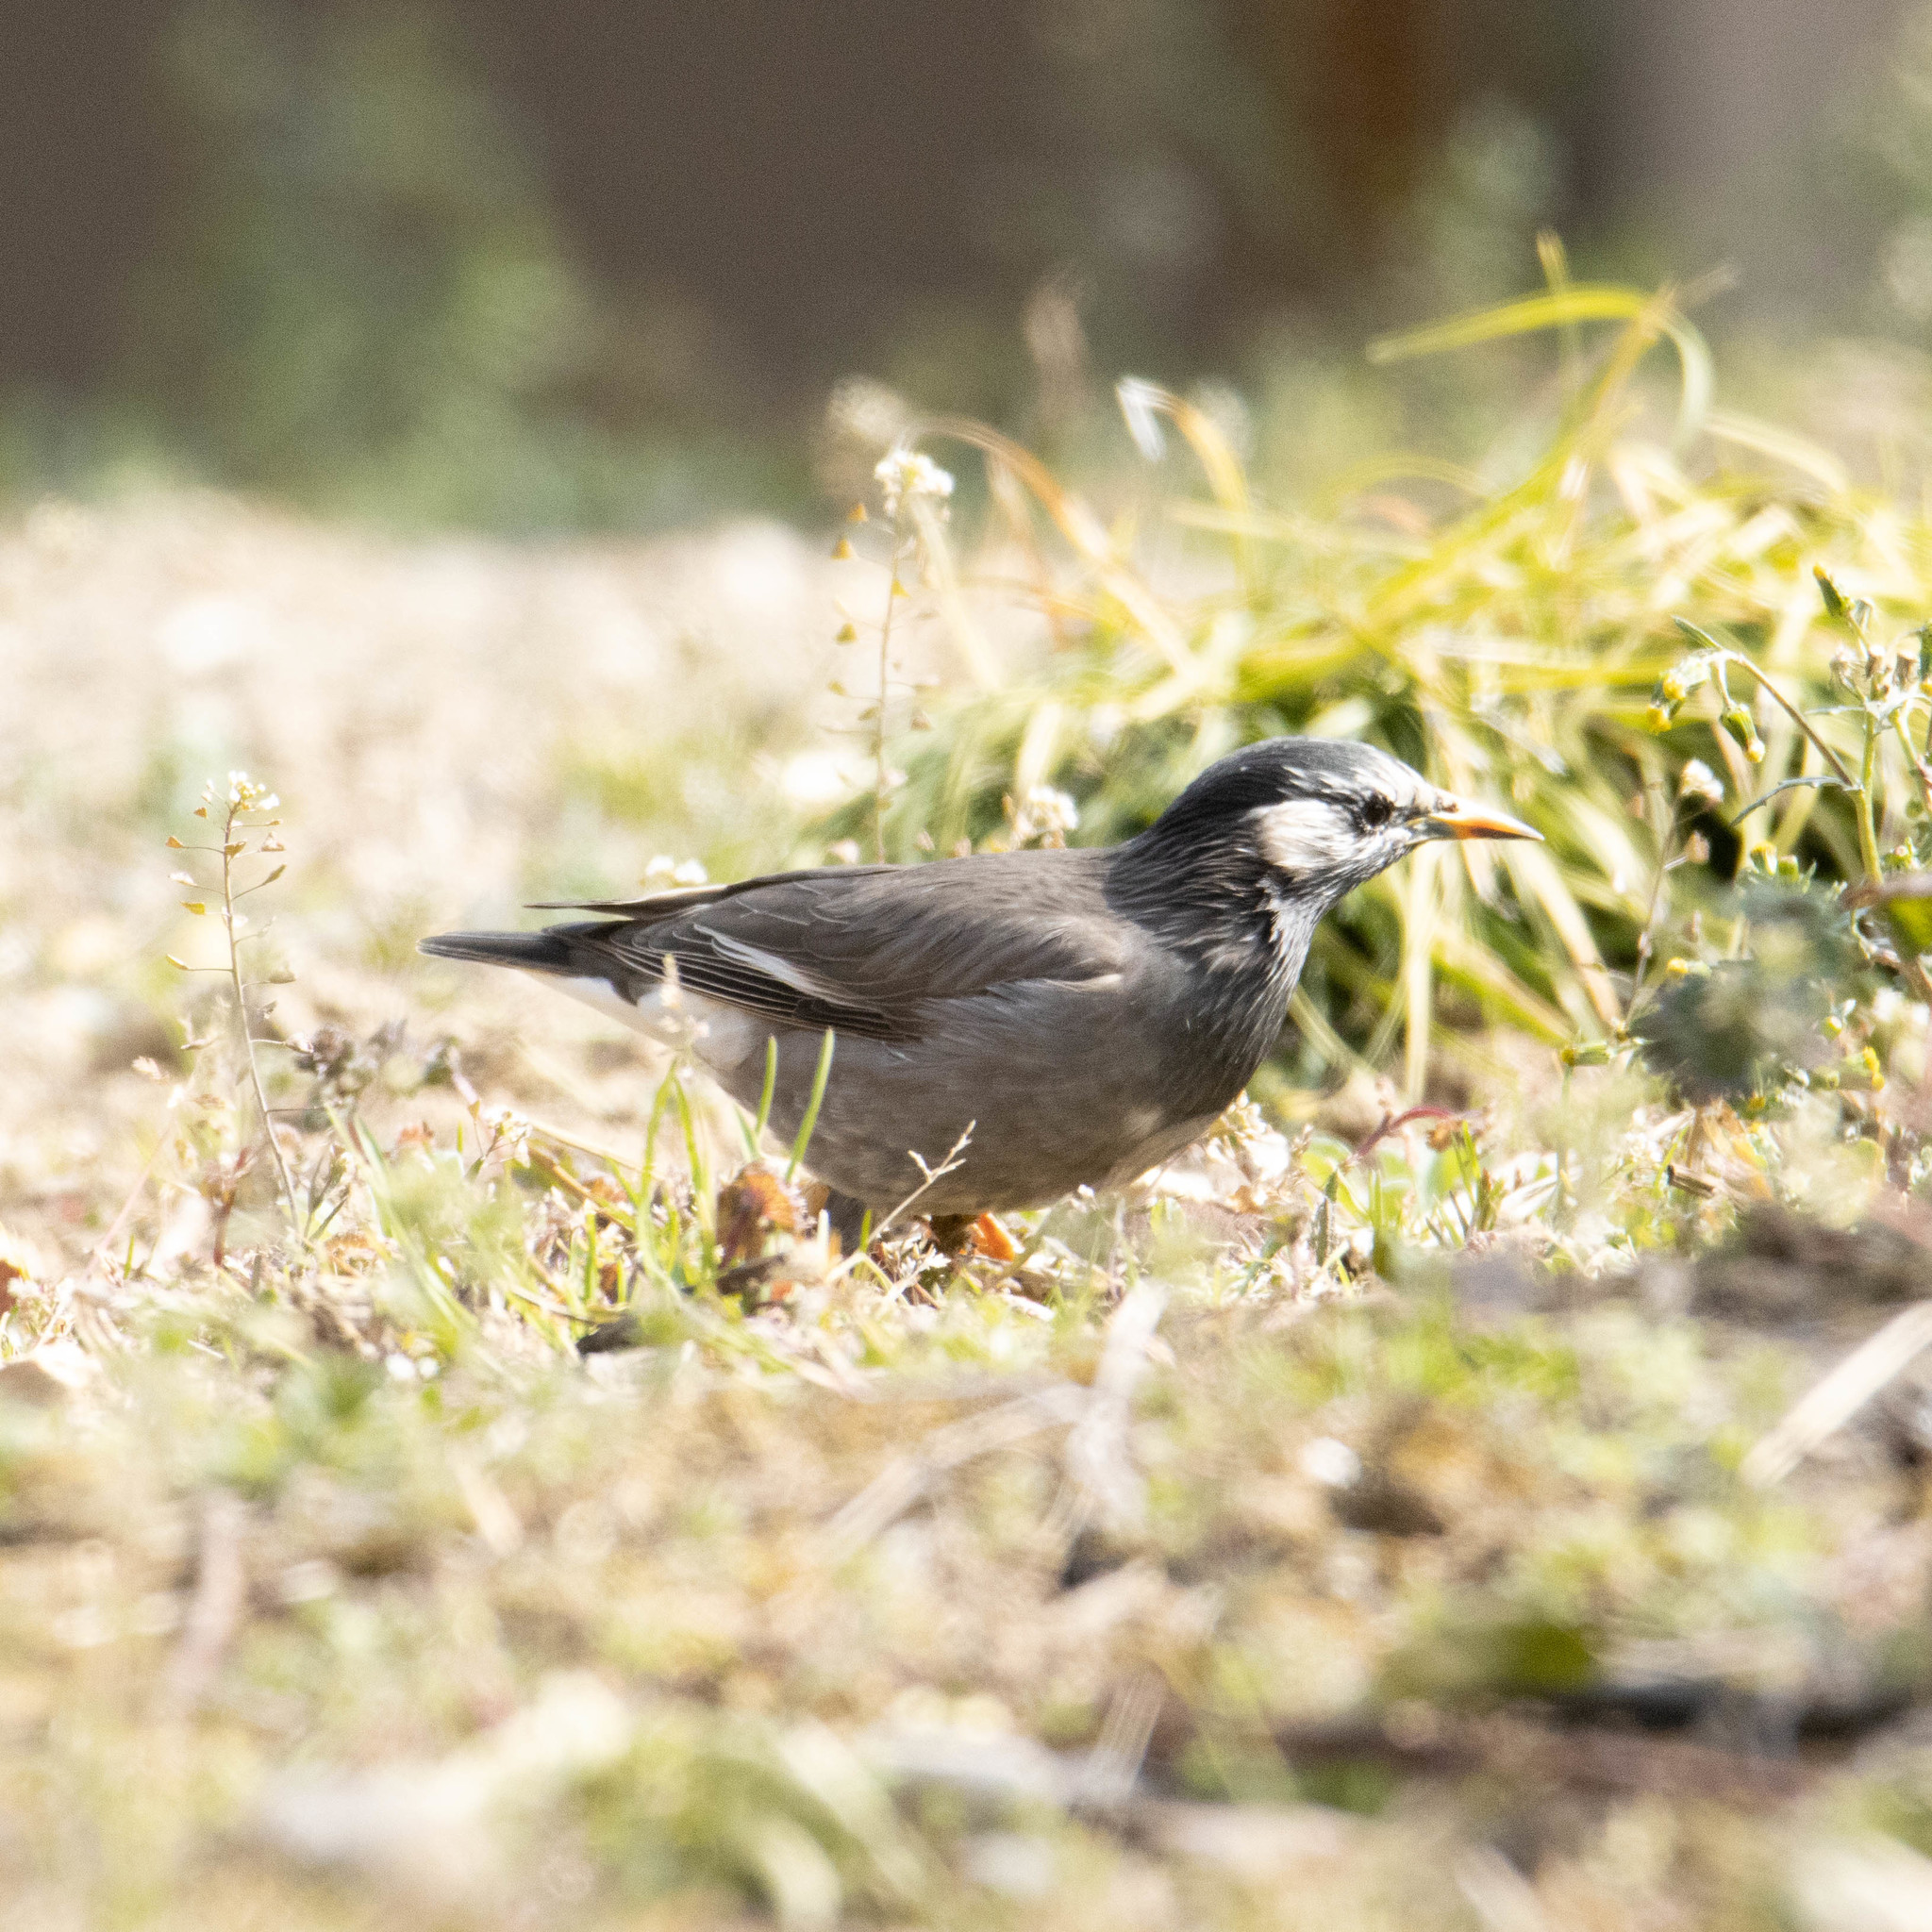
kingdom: Animalia
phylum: Chordata
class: Aves
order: Passeriformes
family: Sturnidae
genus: Spodiopsar
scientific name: Spodiopsar cineraceus
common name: White-cheeked starling
